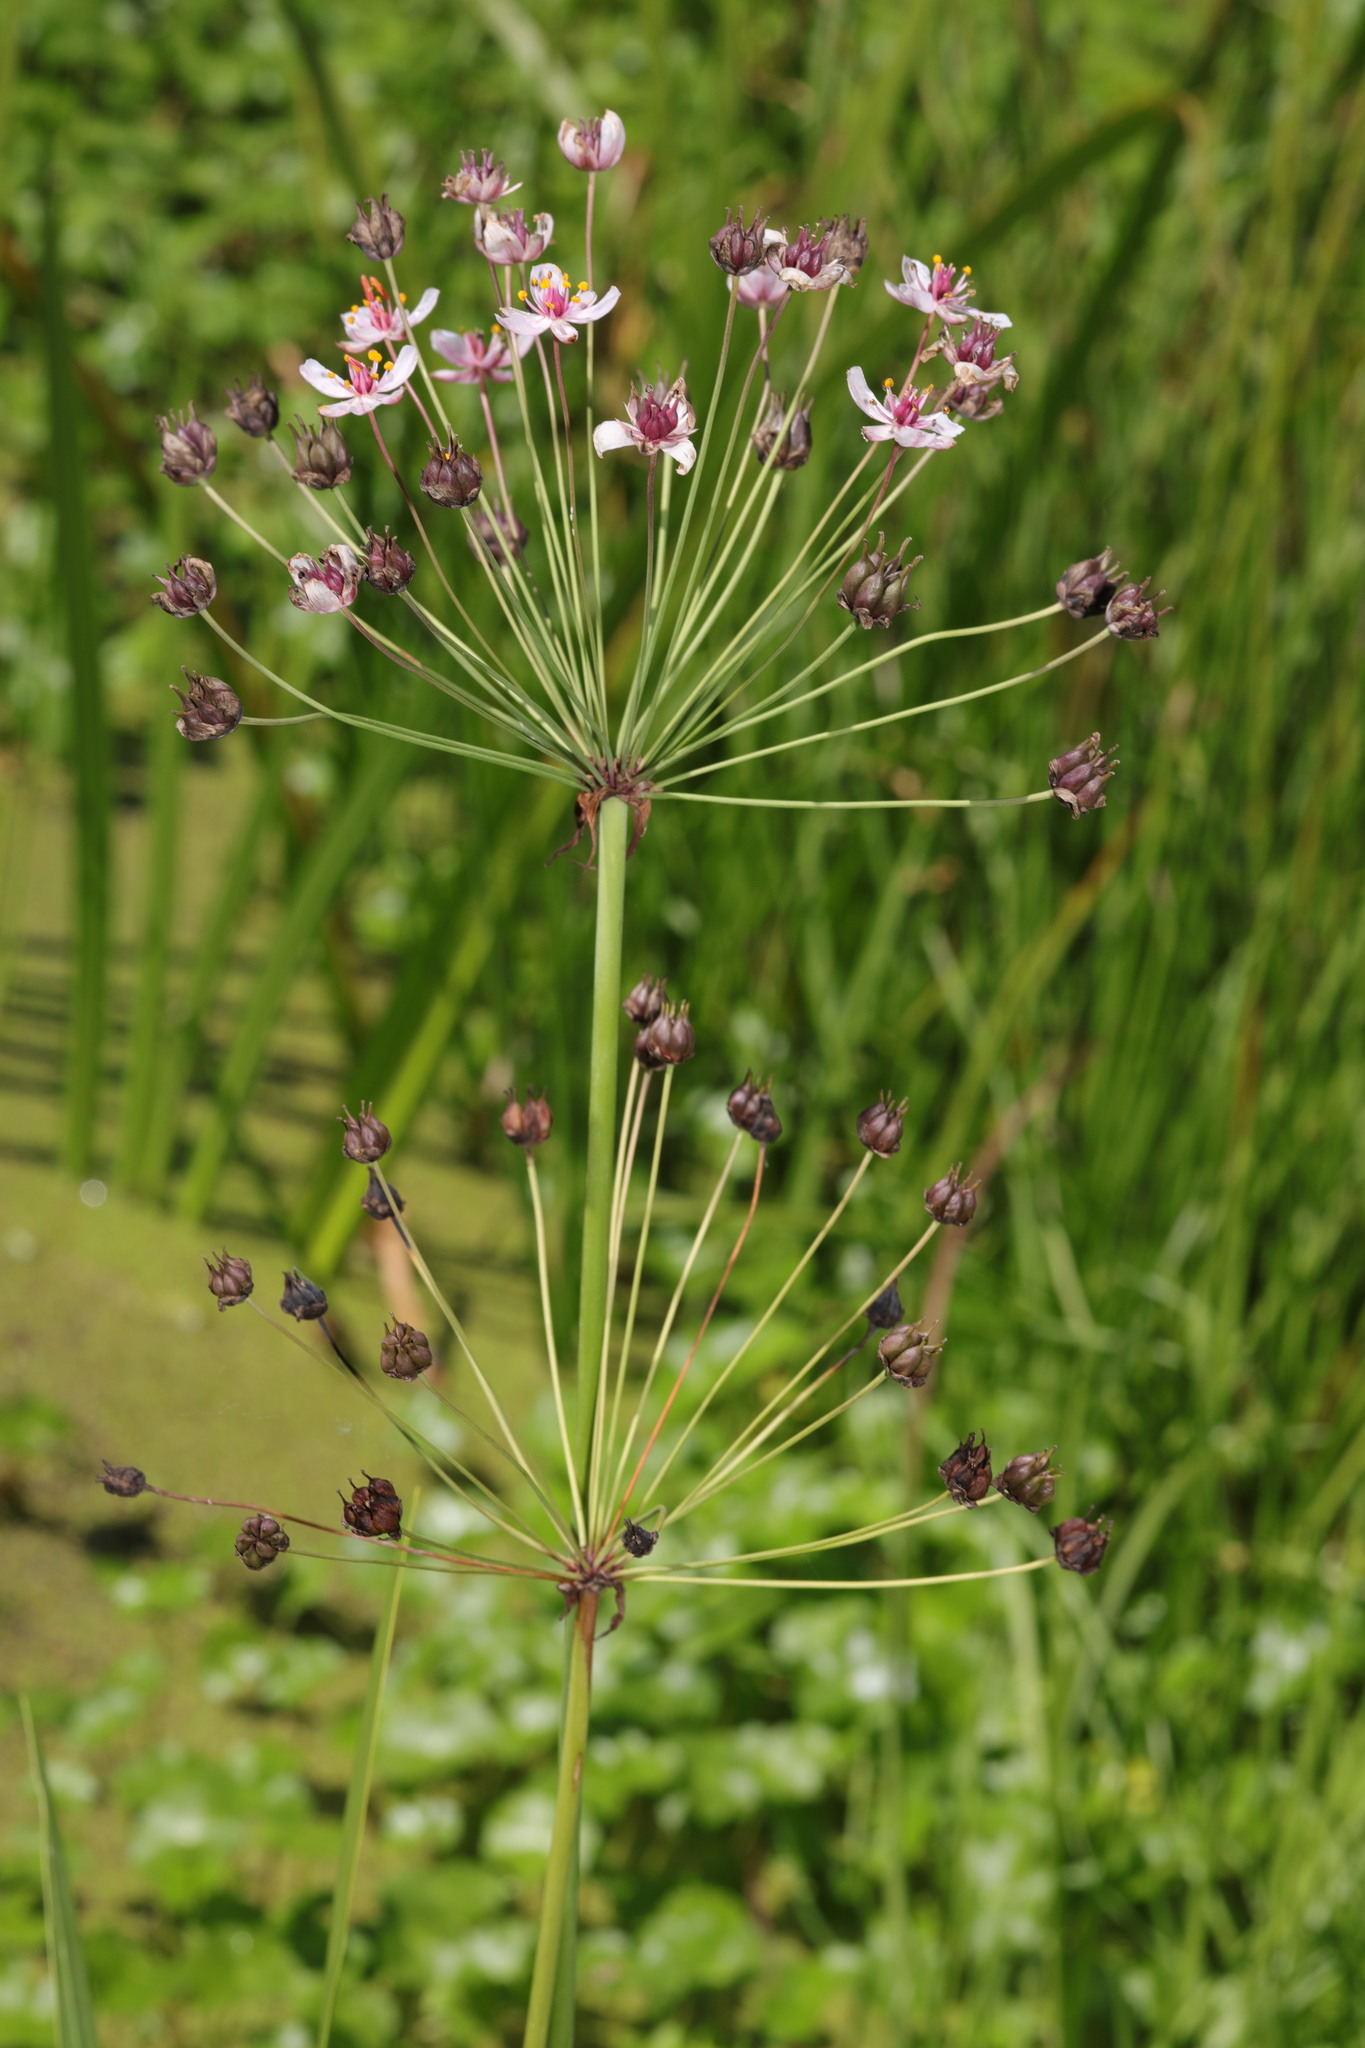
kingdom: Plantae
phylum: Tracheophyta
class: Liliopsida
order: Alismatales
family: Butomaceae
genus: Butomus
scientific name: Butomus umbellatus
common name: Flowering-rush
